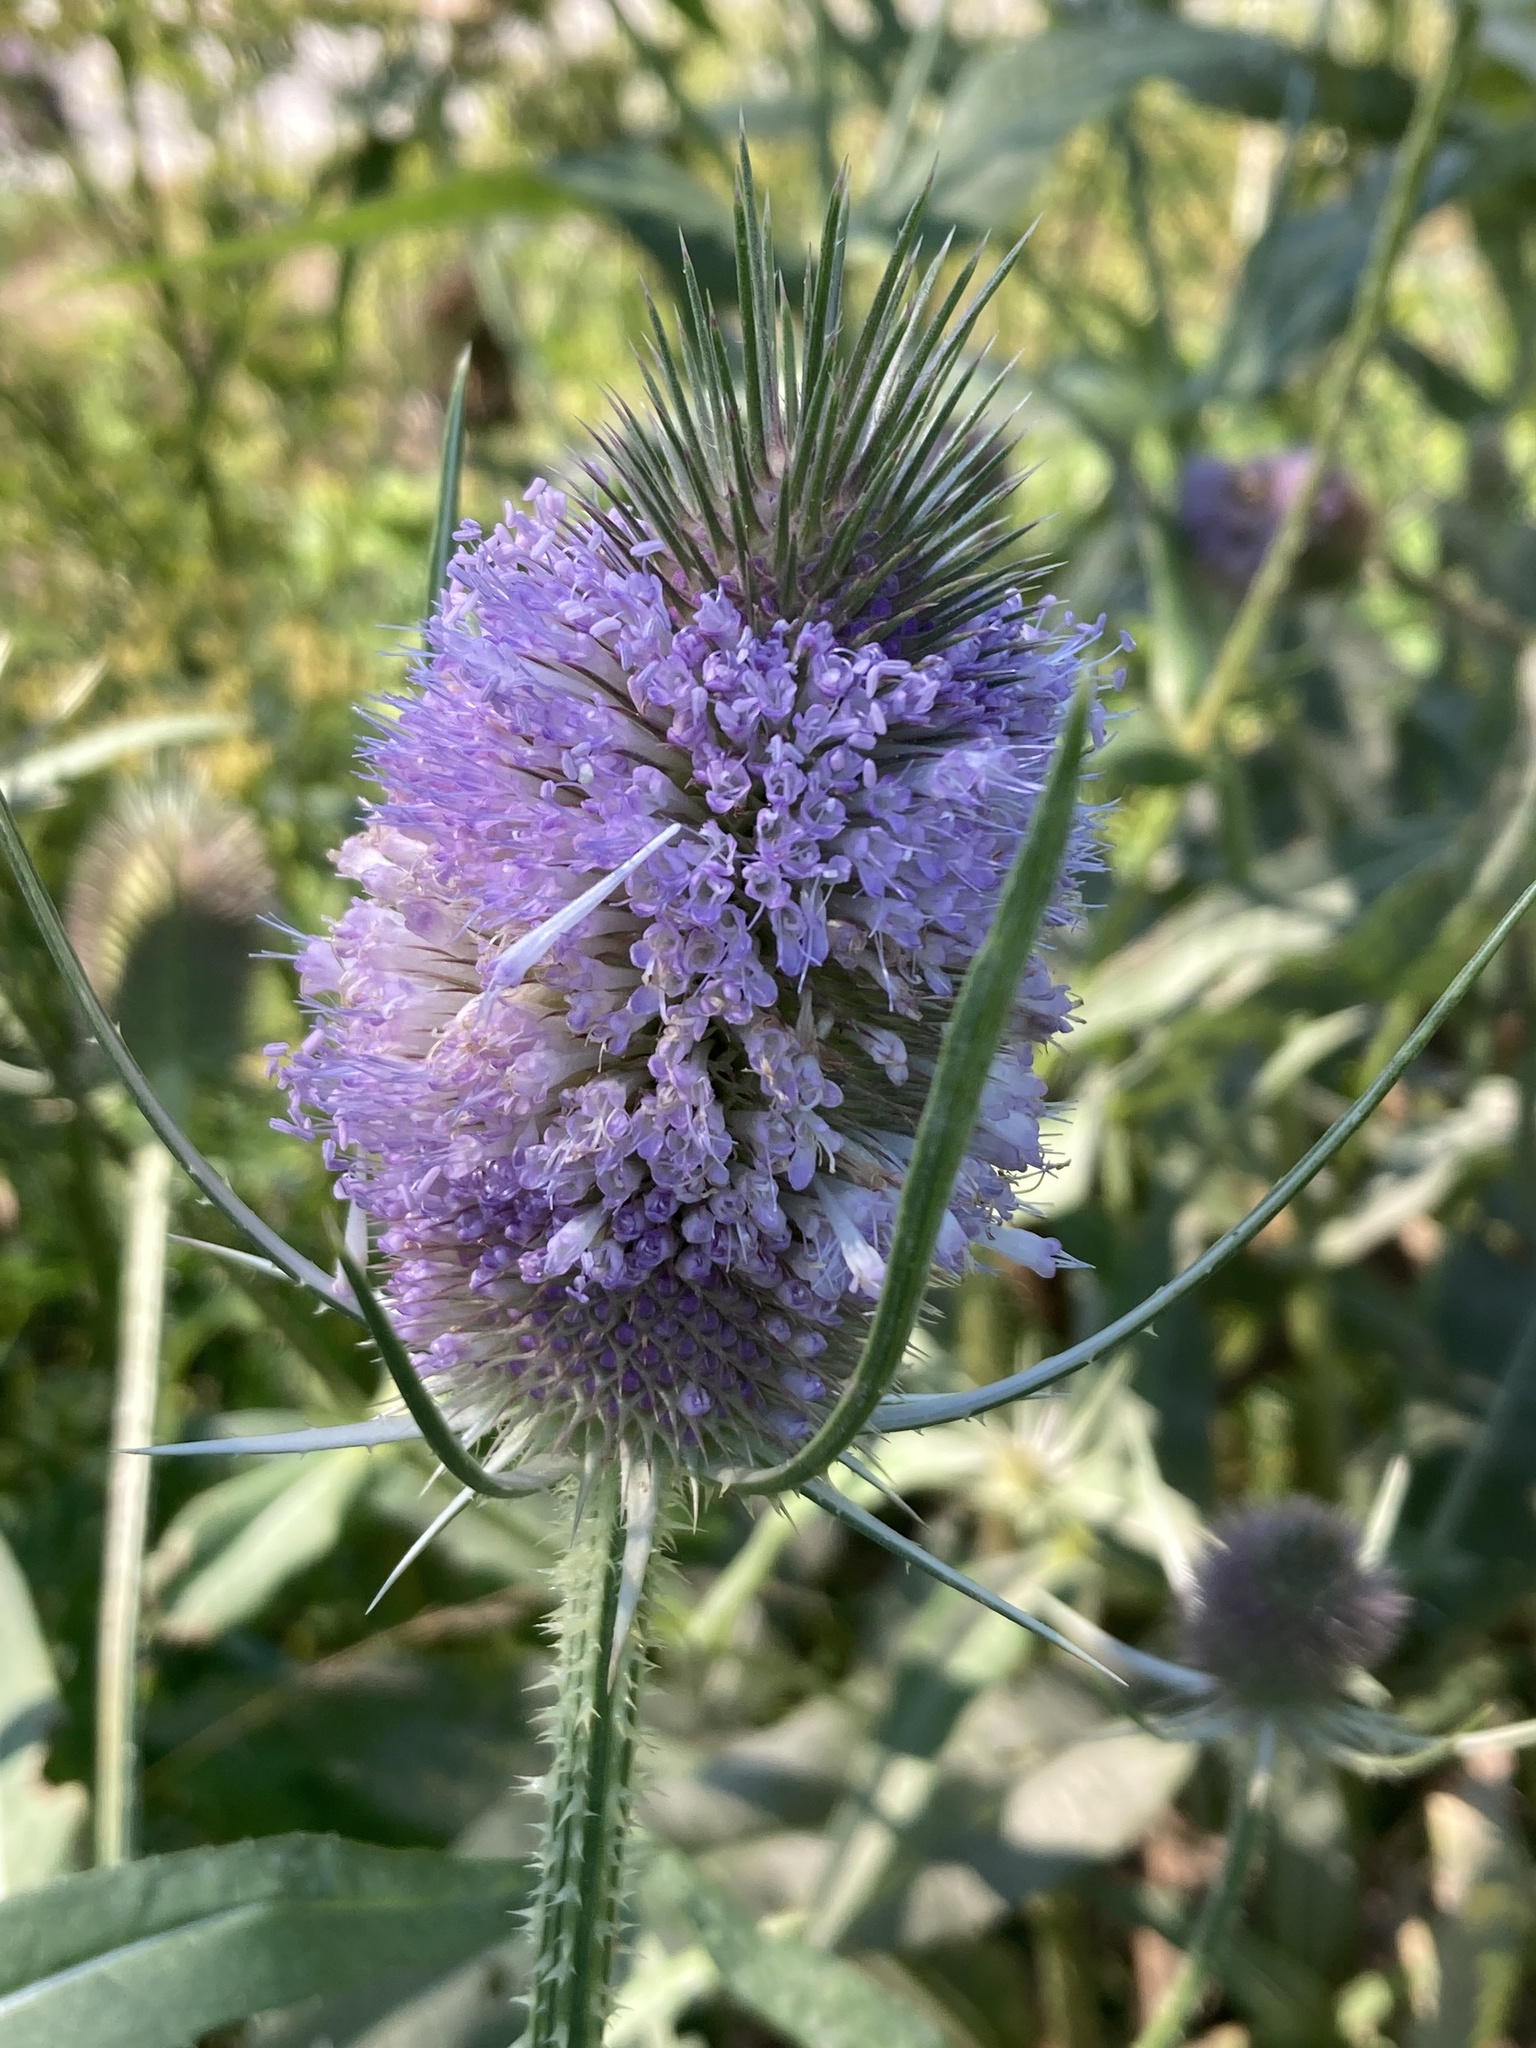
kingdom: Plantae
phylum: Tracheophyta
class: Magnoliopsida
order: Dipsacales
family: Caprifoliaceae
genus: Dipsacus
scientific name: Dipsacus fullonum
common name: Teasel
